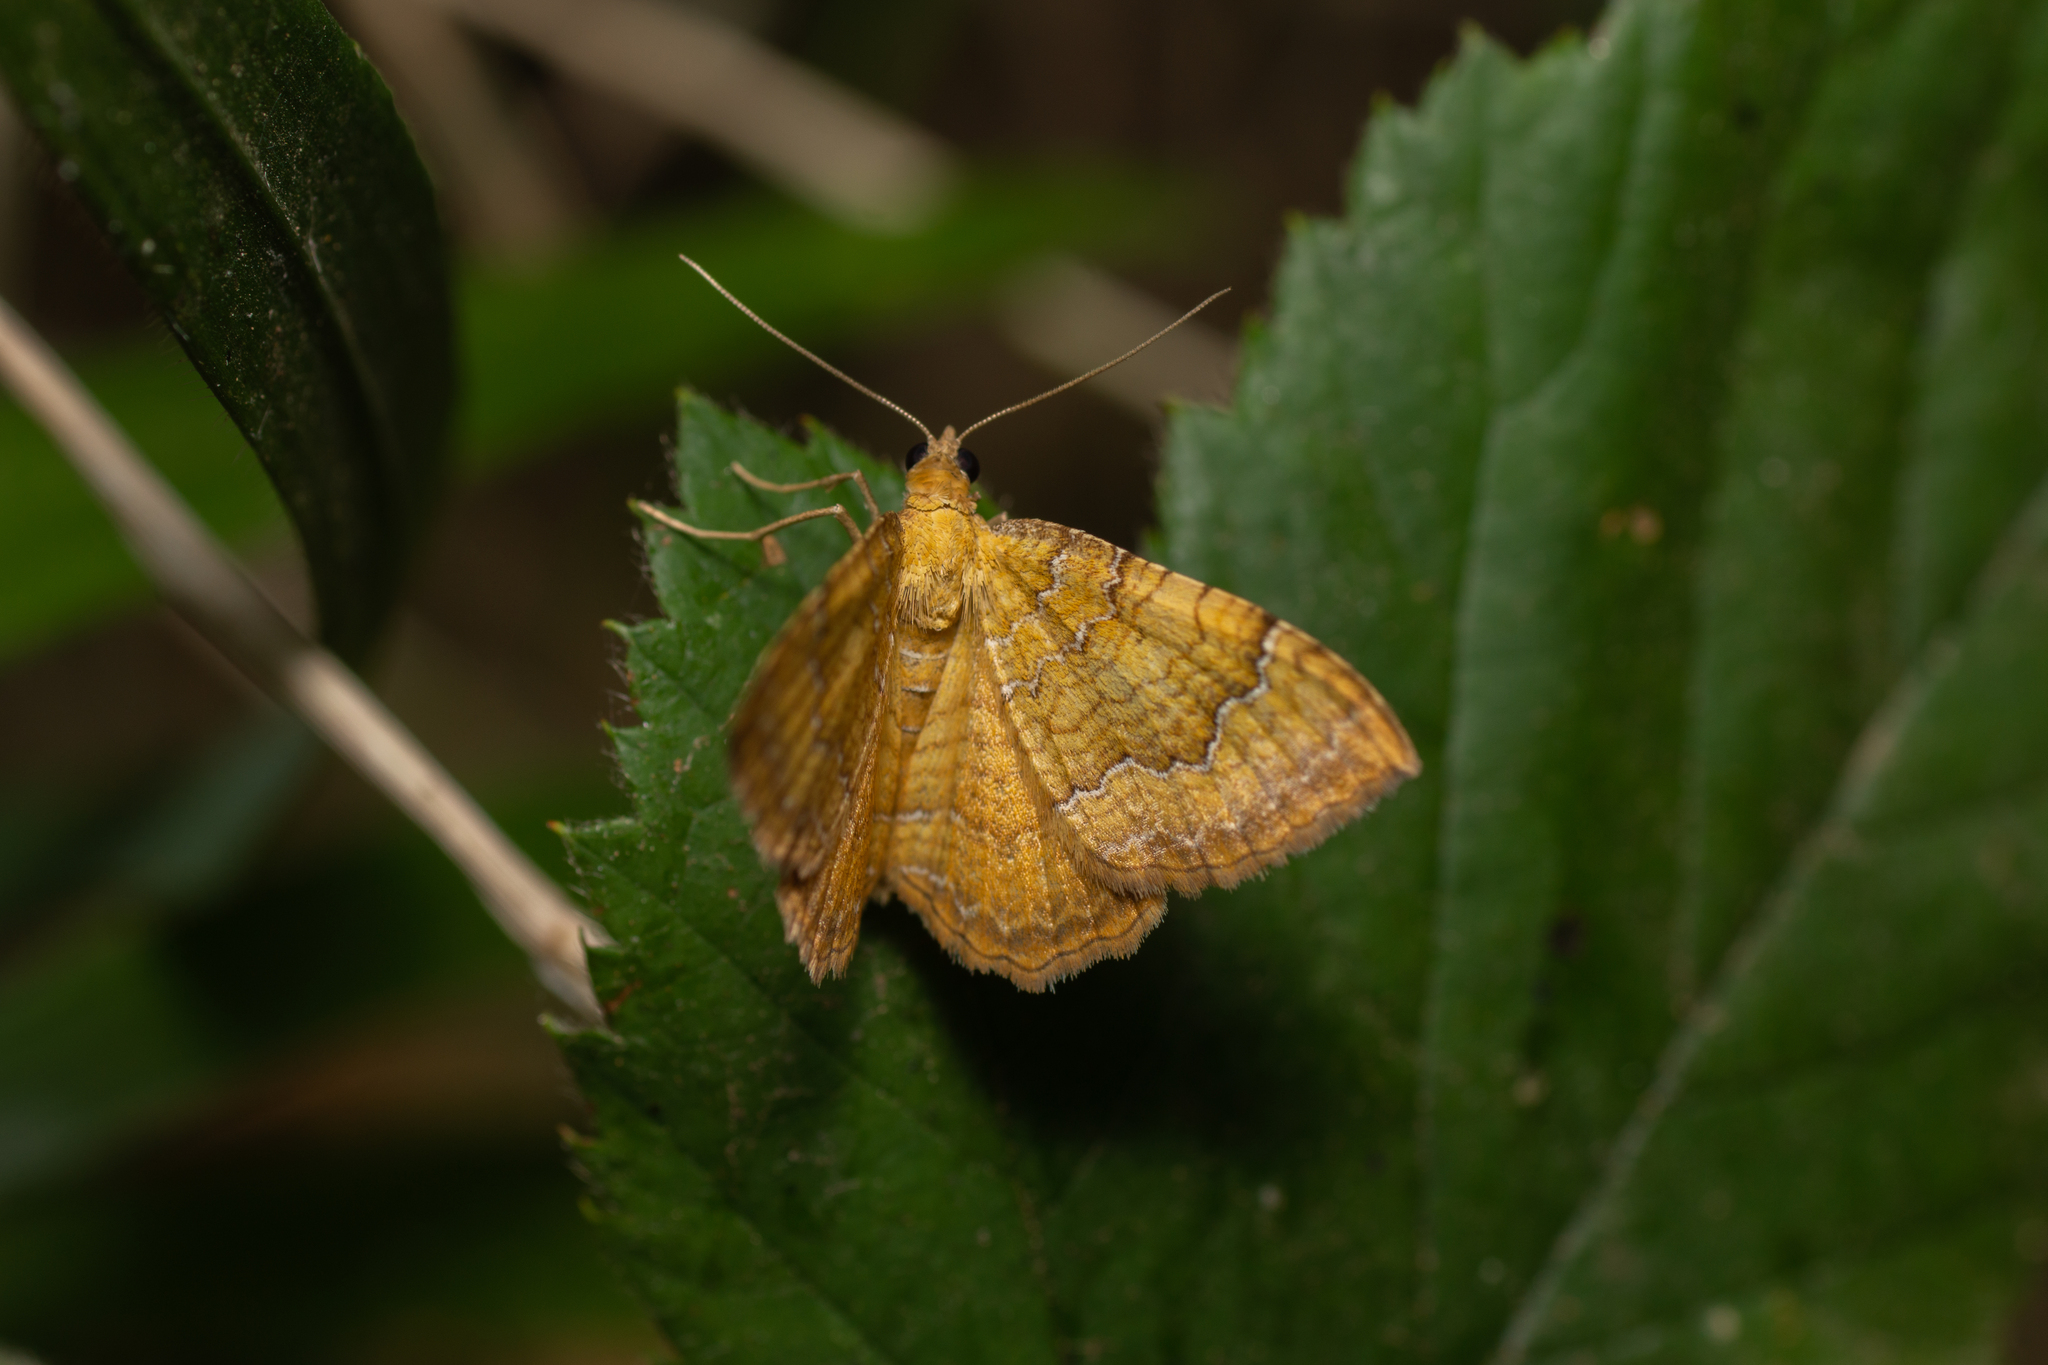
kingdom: Animalia
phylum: Arthropoda
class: Insecta
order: Lepidoptera
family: Geometridae
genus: Camptogramma
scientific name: Camptogramma bilineata
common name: Yellow shell
